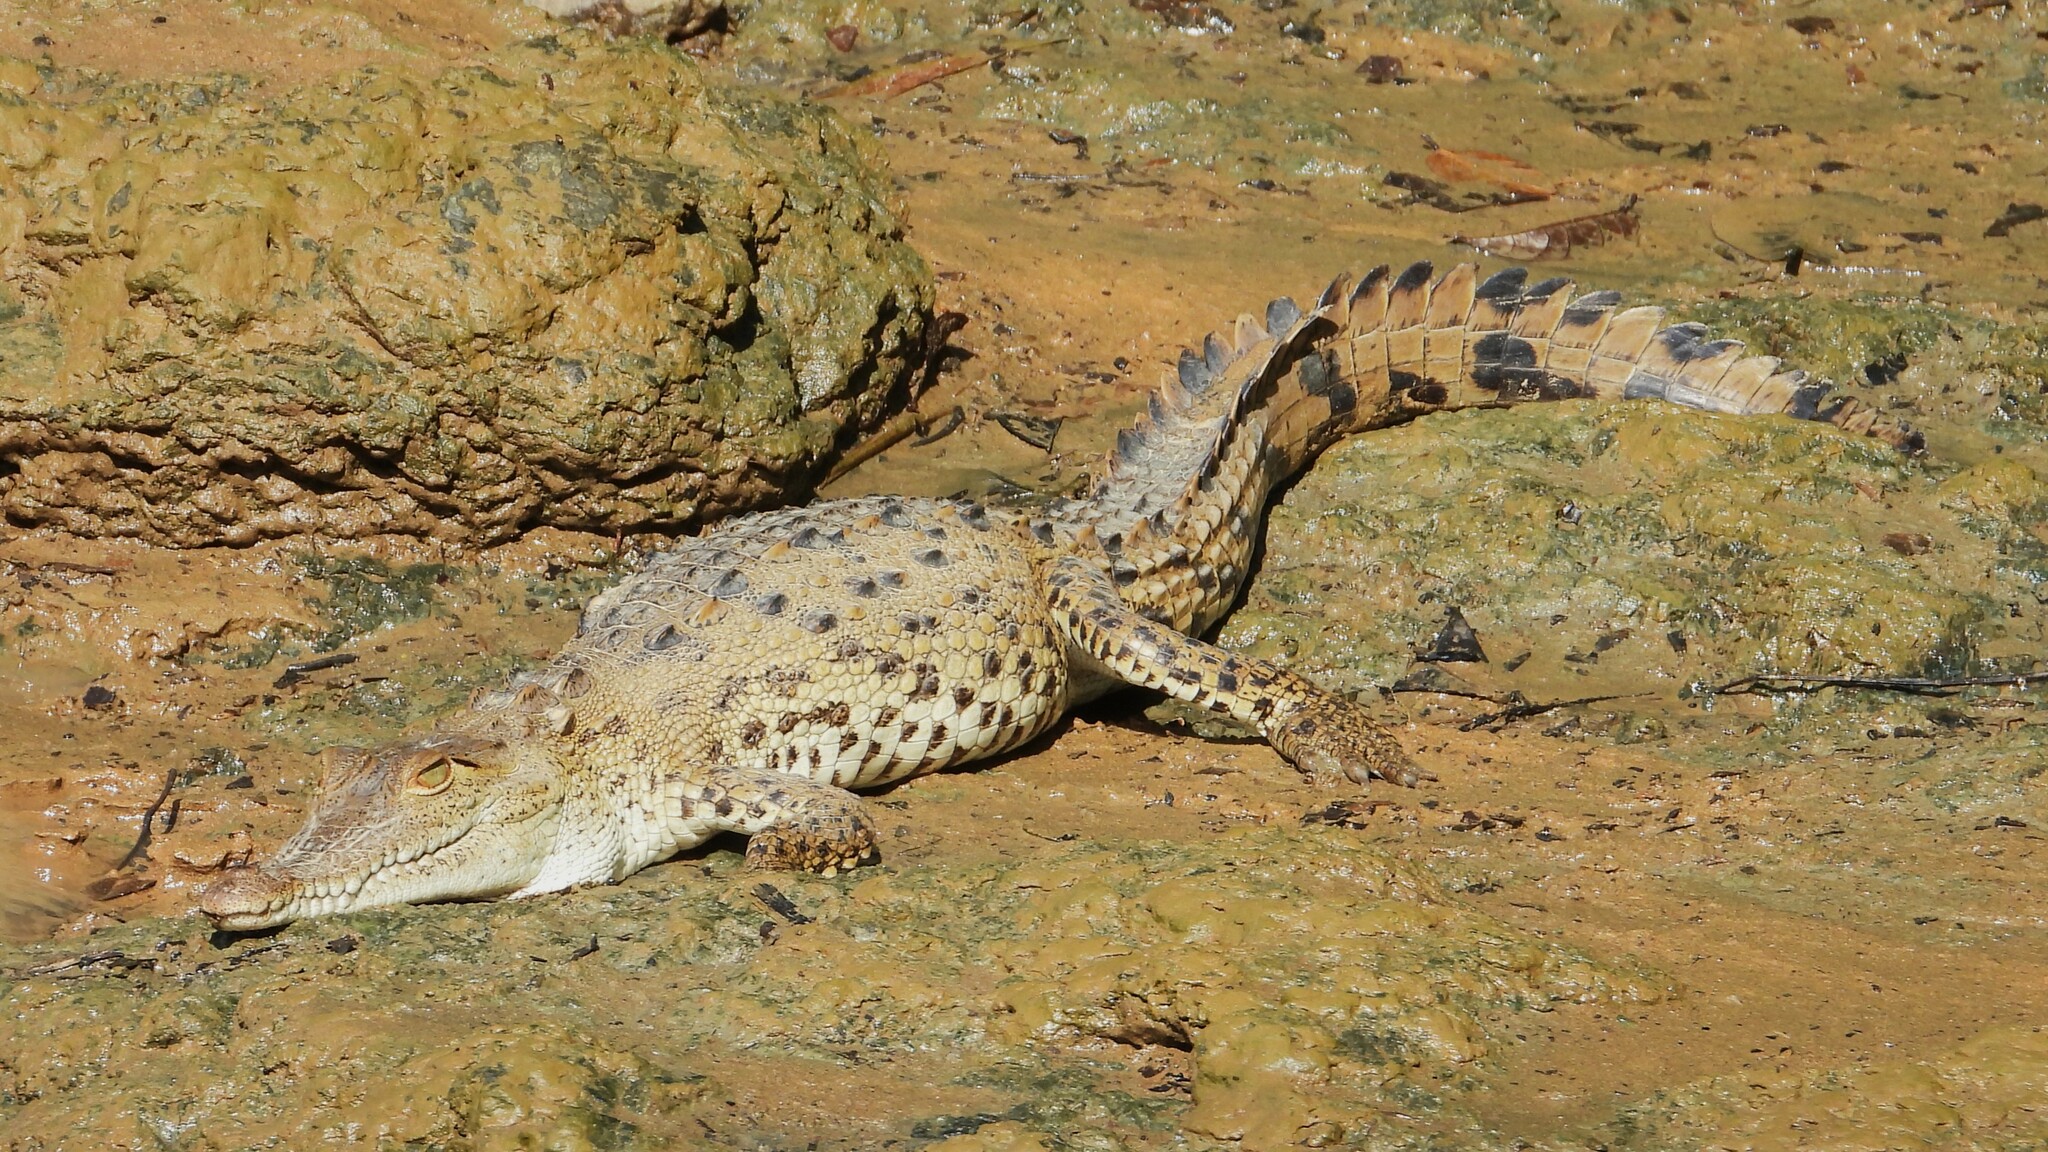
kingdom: Animalia
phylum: Chordata
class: Crocodylia
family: Crocodylidae
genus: Crocodylus
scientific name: Crocodylus acutus
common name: American crocodile
